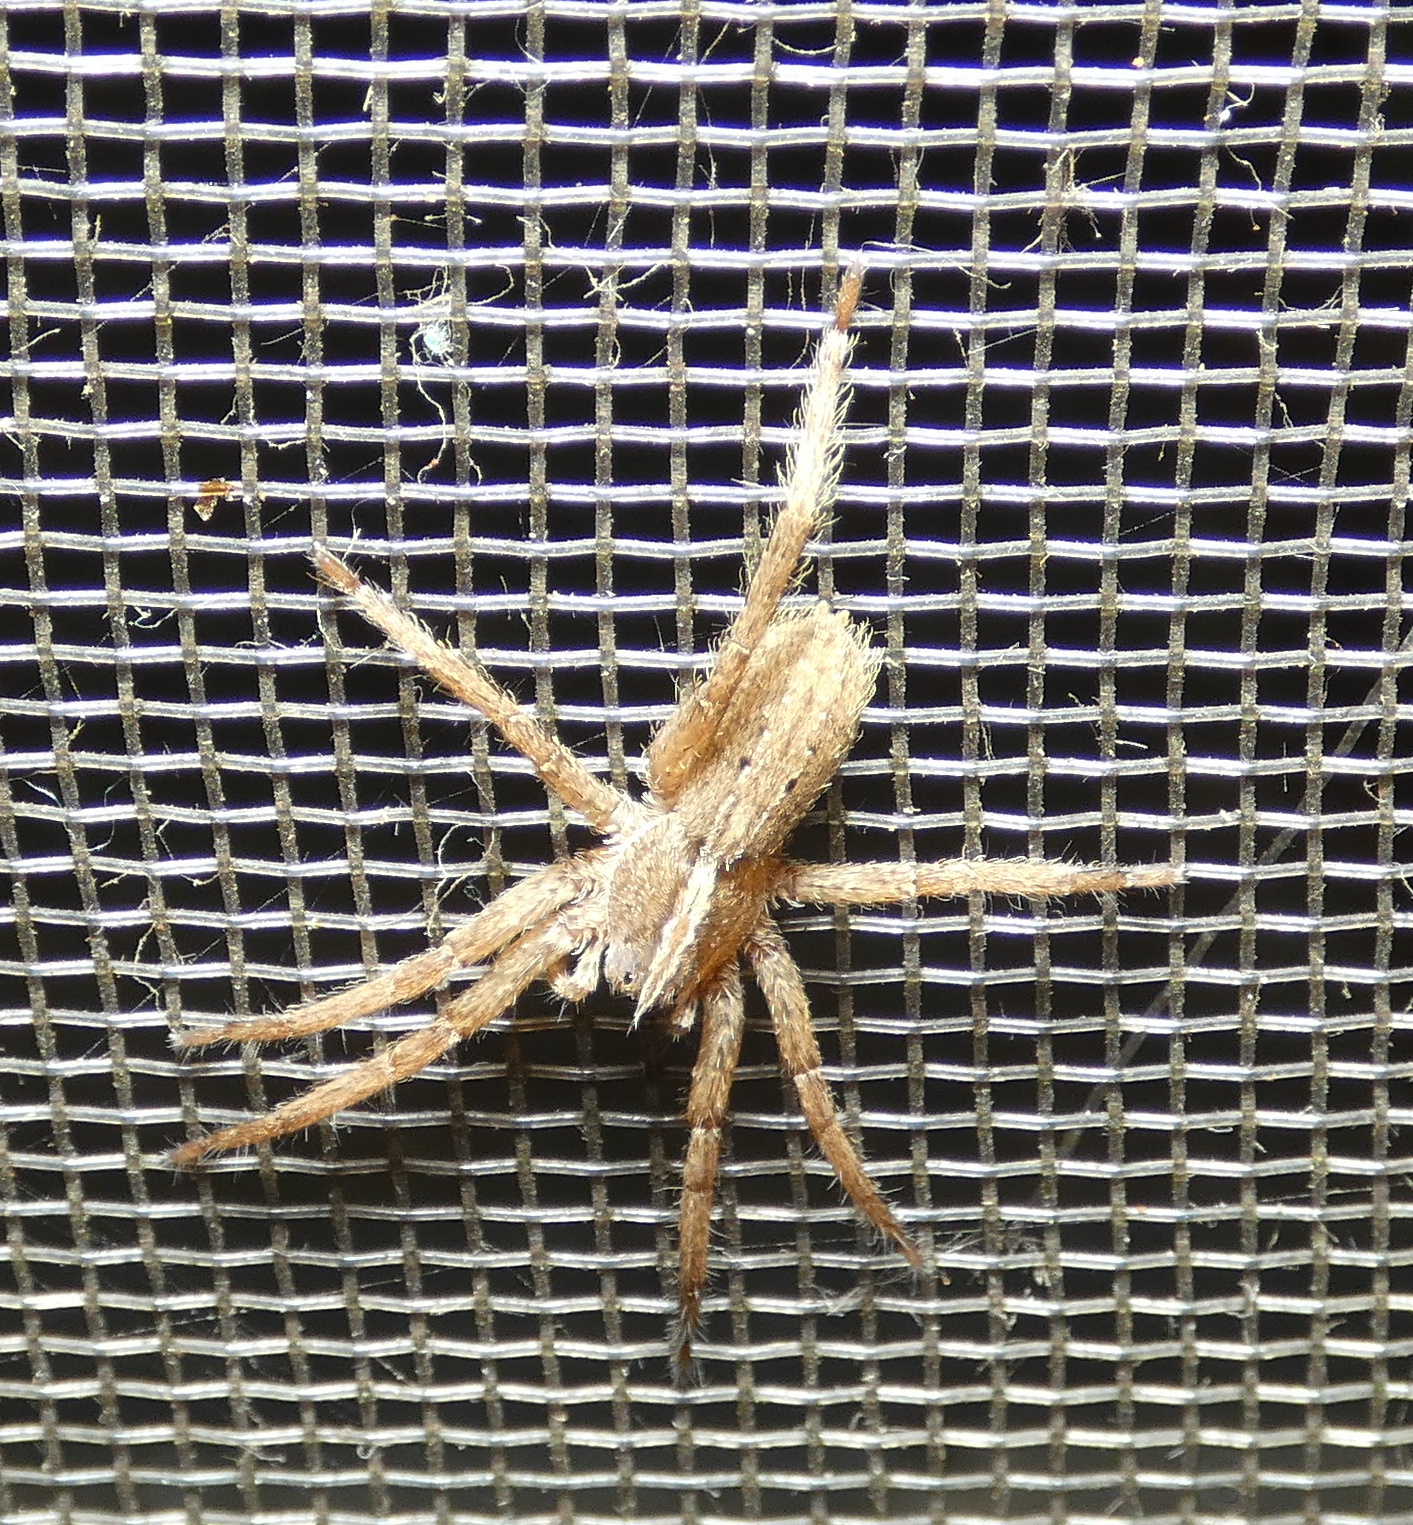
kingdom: Animalia
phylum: Arthropoda
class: Arachnida
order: Araneae
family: Ctenidae
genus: Parabatinga
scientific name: Parabatinga brevipes
